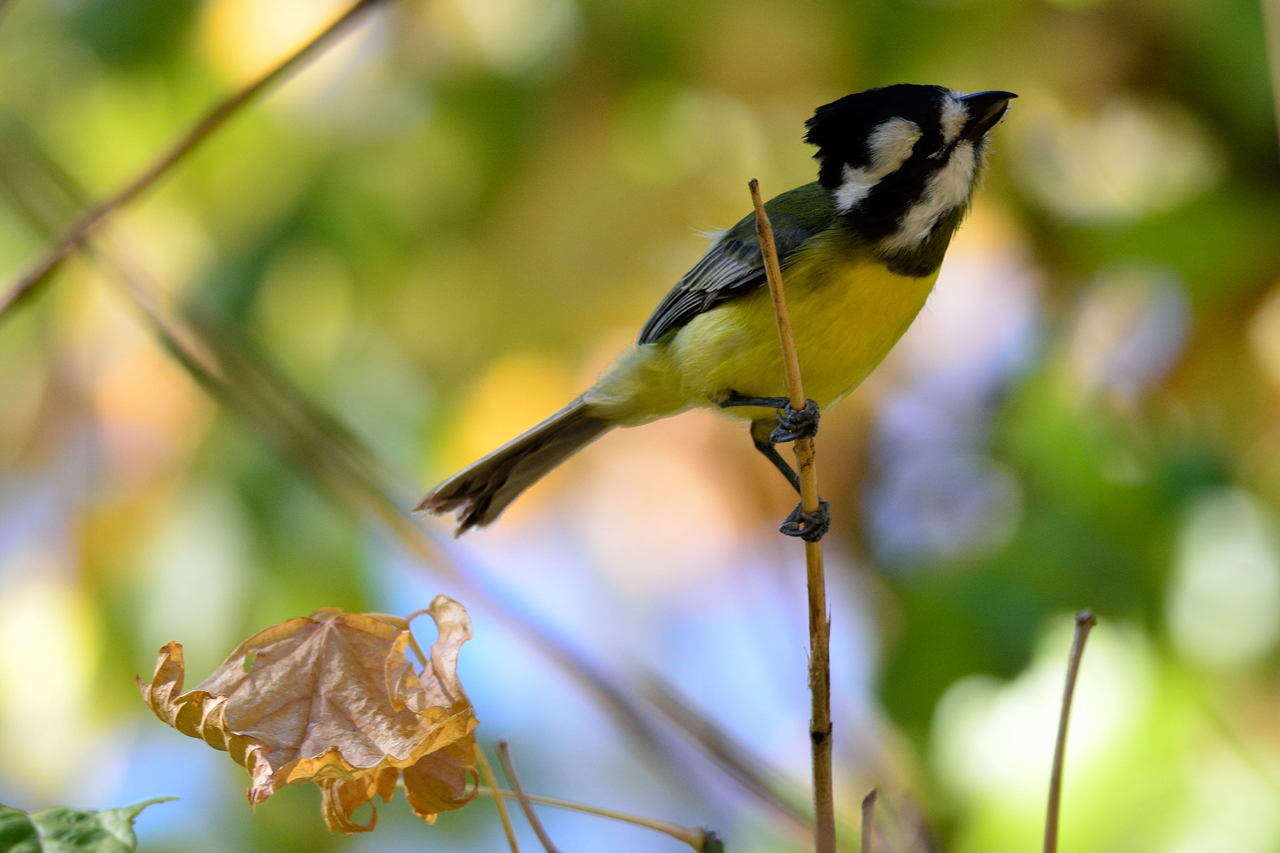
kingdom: Animalia
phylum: Chordata
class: Aves
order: Passeriformes
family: Pachycephalidae
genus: Falcunculus
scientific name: Falcunculus frontatus
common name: Crested shriketit
